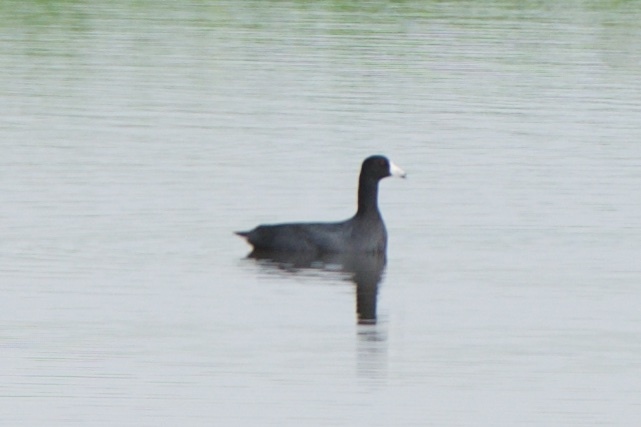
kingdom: Animalia
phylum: Chordata
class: Aves
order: Gruiformes
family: Rallidae
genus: Fulica
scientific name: Fulica americana
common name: American coot
